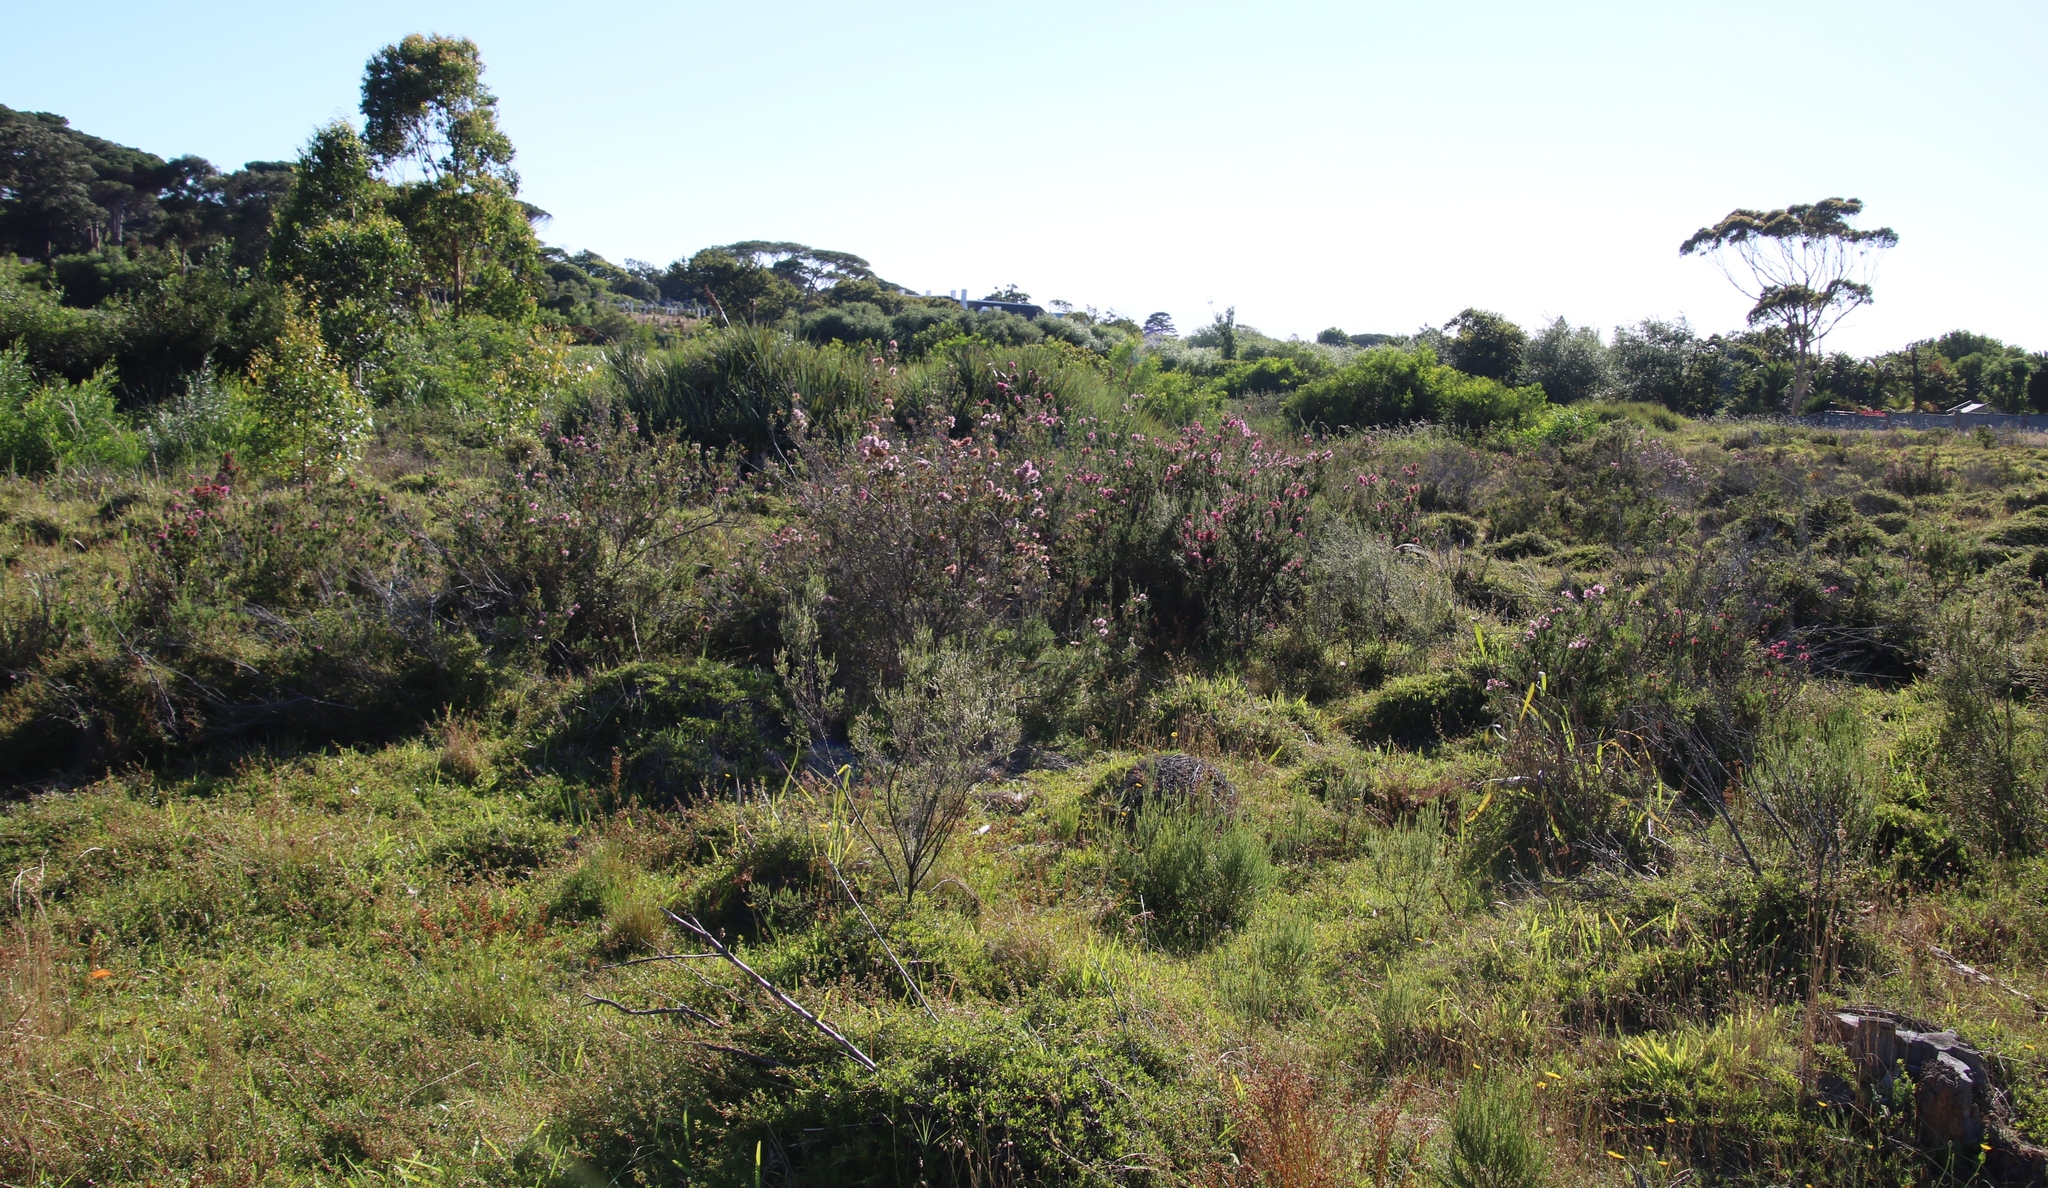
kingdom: Plantae
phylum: Tracheophyta
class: Magnoliopsida
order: Ericales
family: Ericaceae
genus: Erica
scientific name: Erica verticillata
